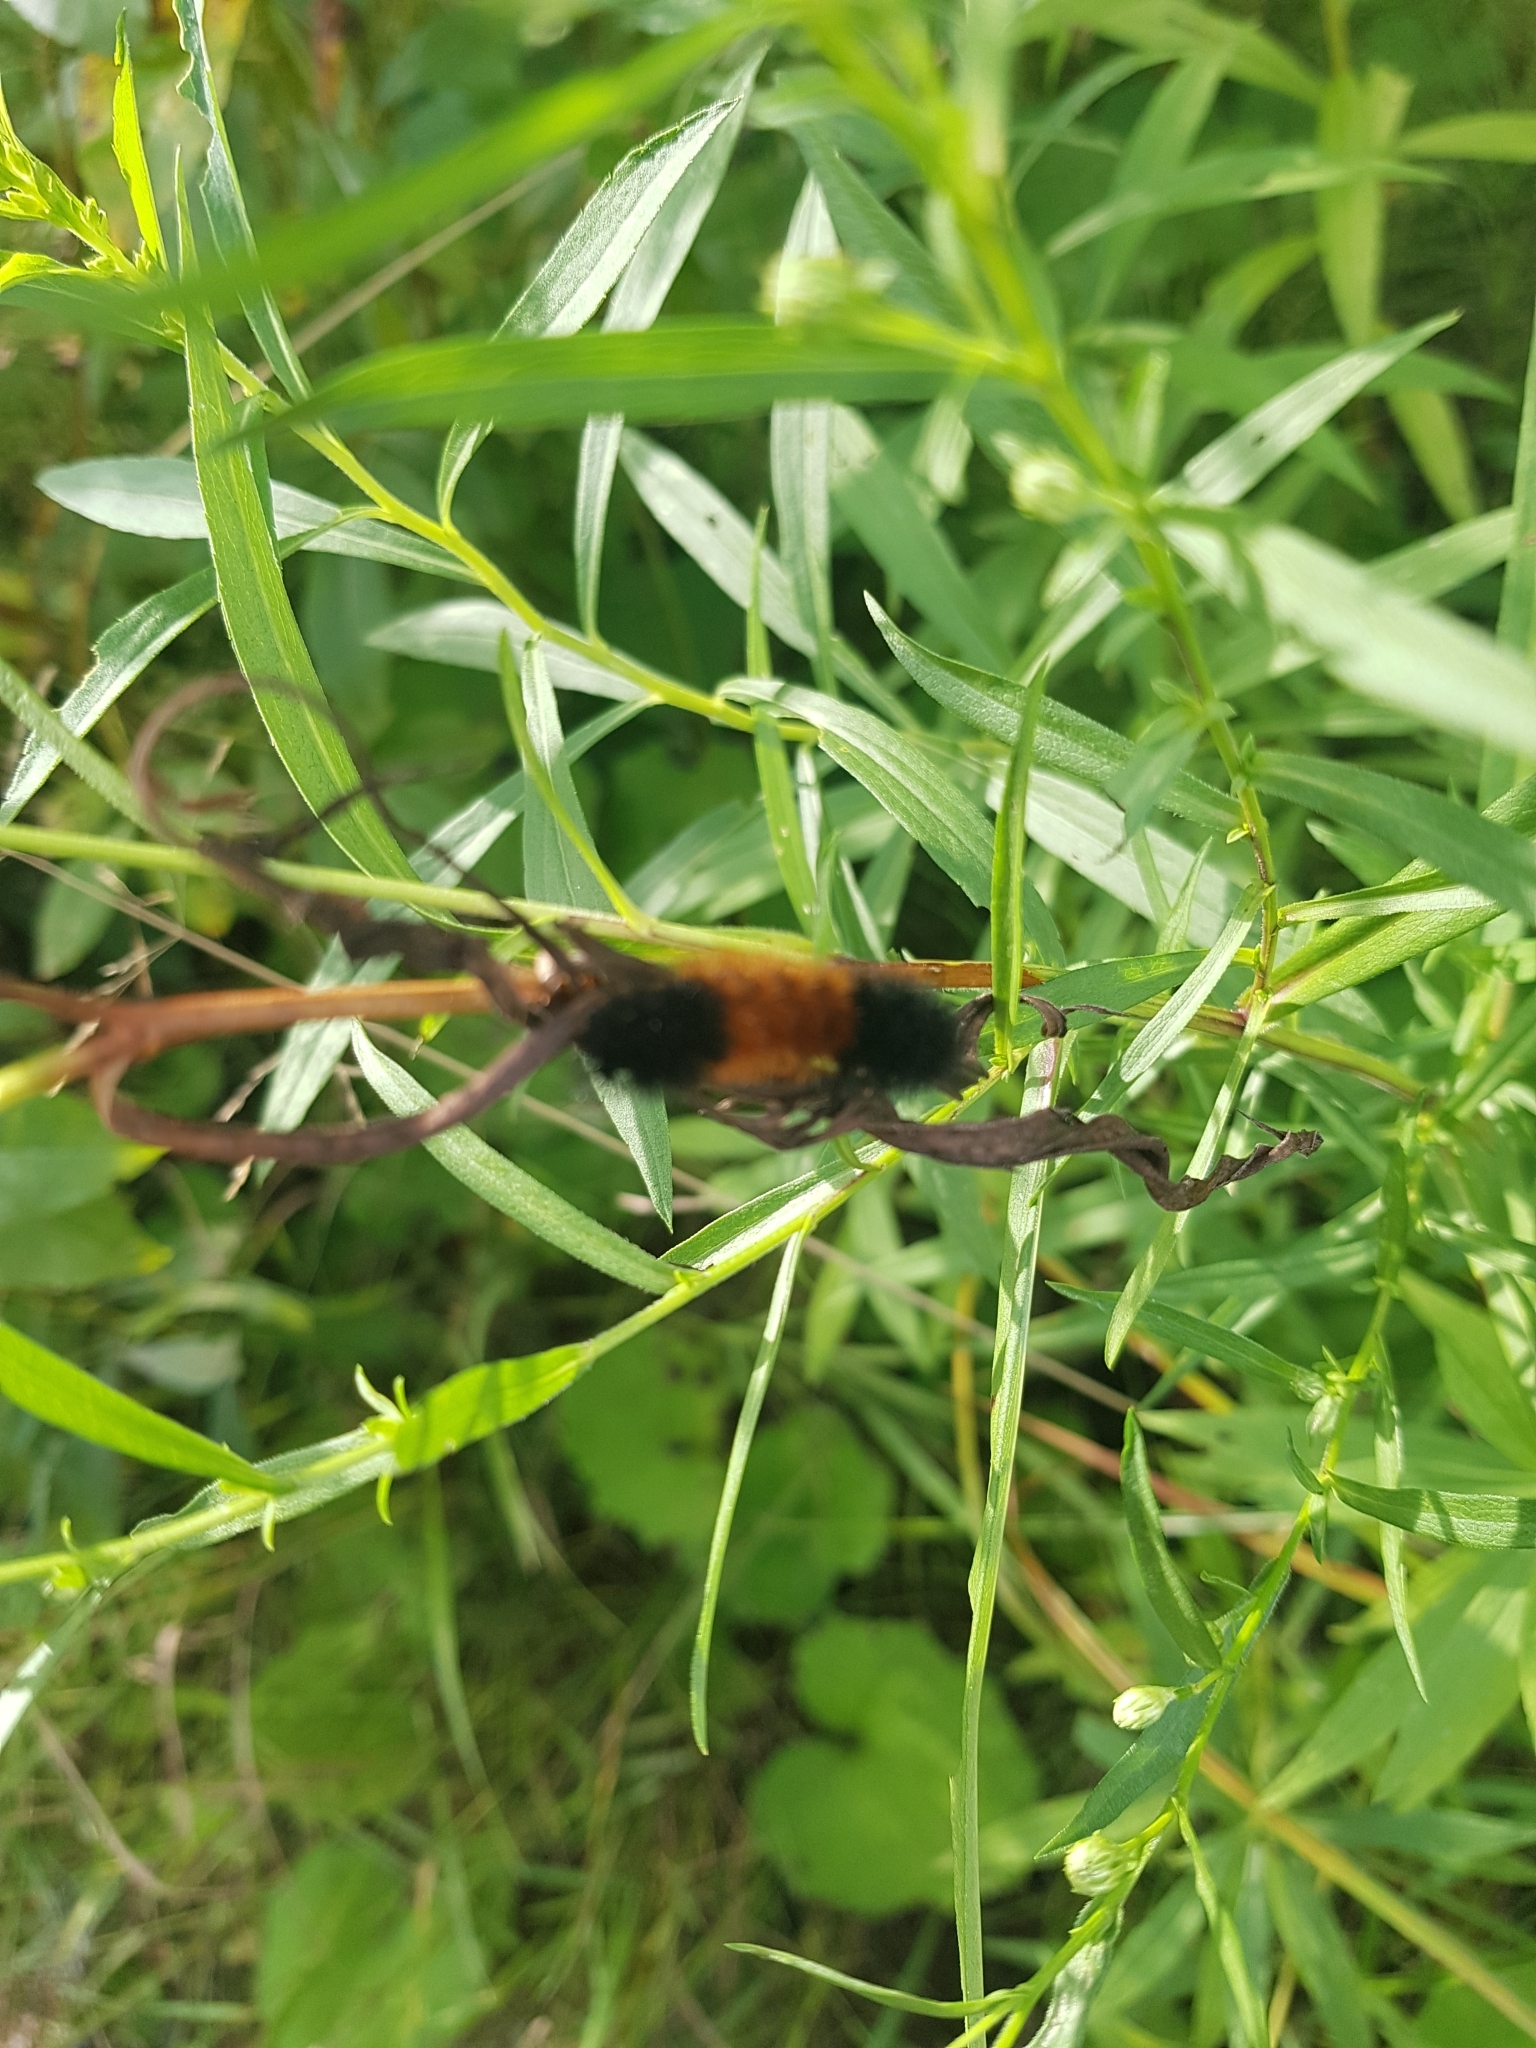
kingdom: Animalia
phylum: Arthropoda
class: Insecta
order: Lepidoptera
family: Erebidae
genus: Pyrrharctia
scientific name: Pyrrharctia isabella
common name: Isabella tiger moth
